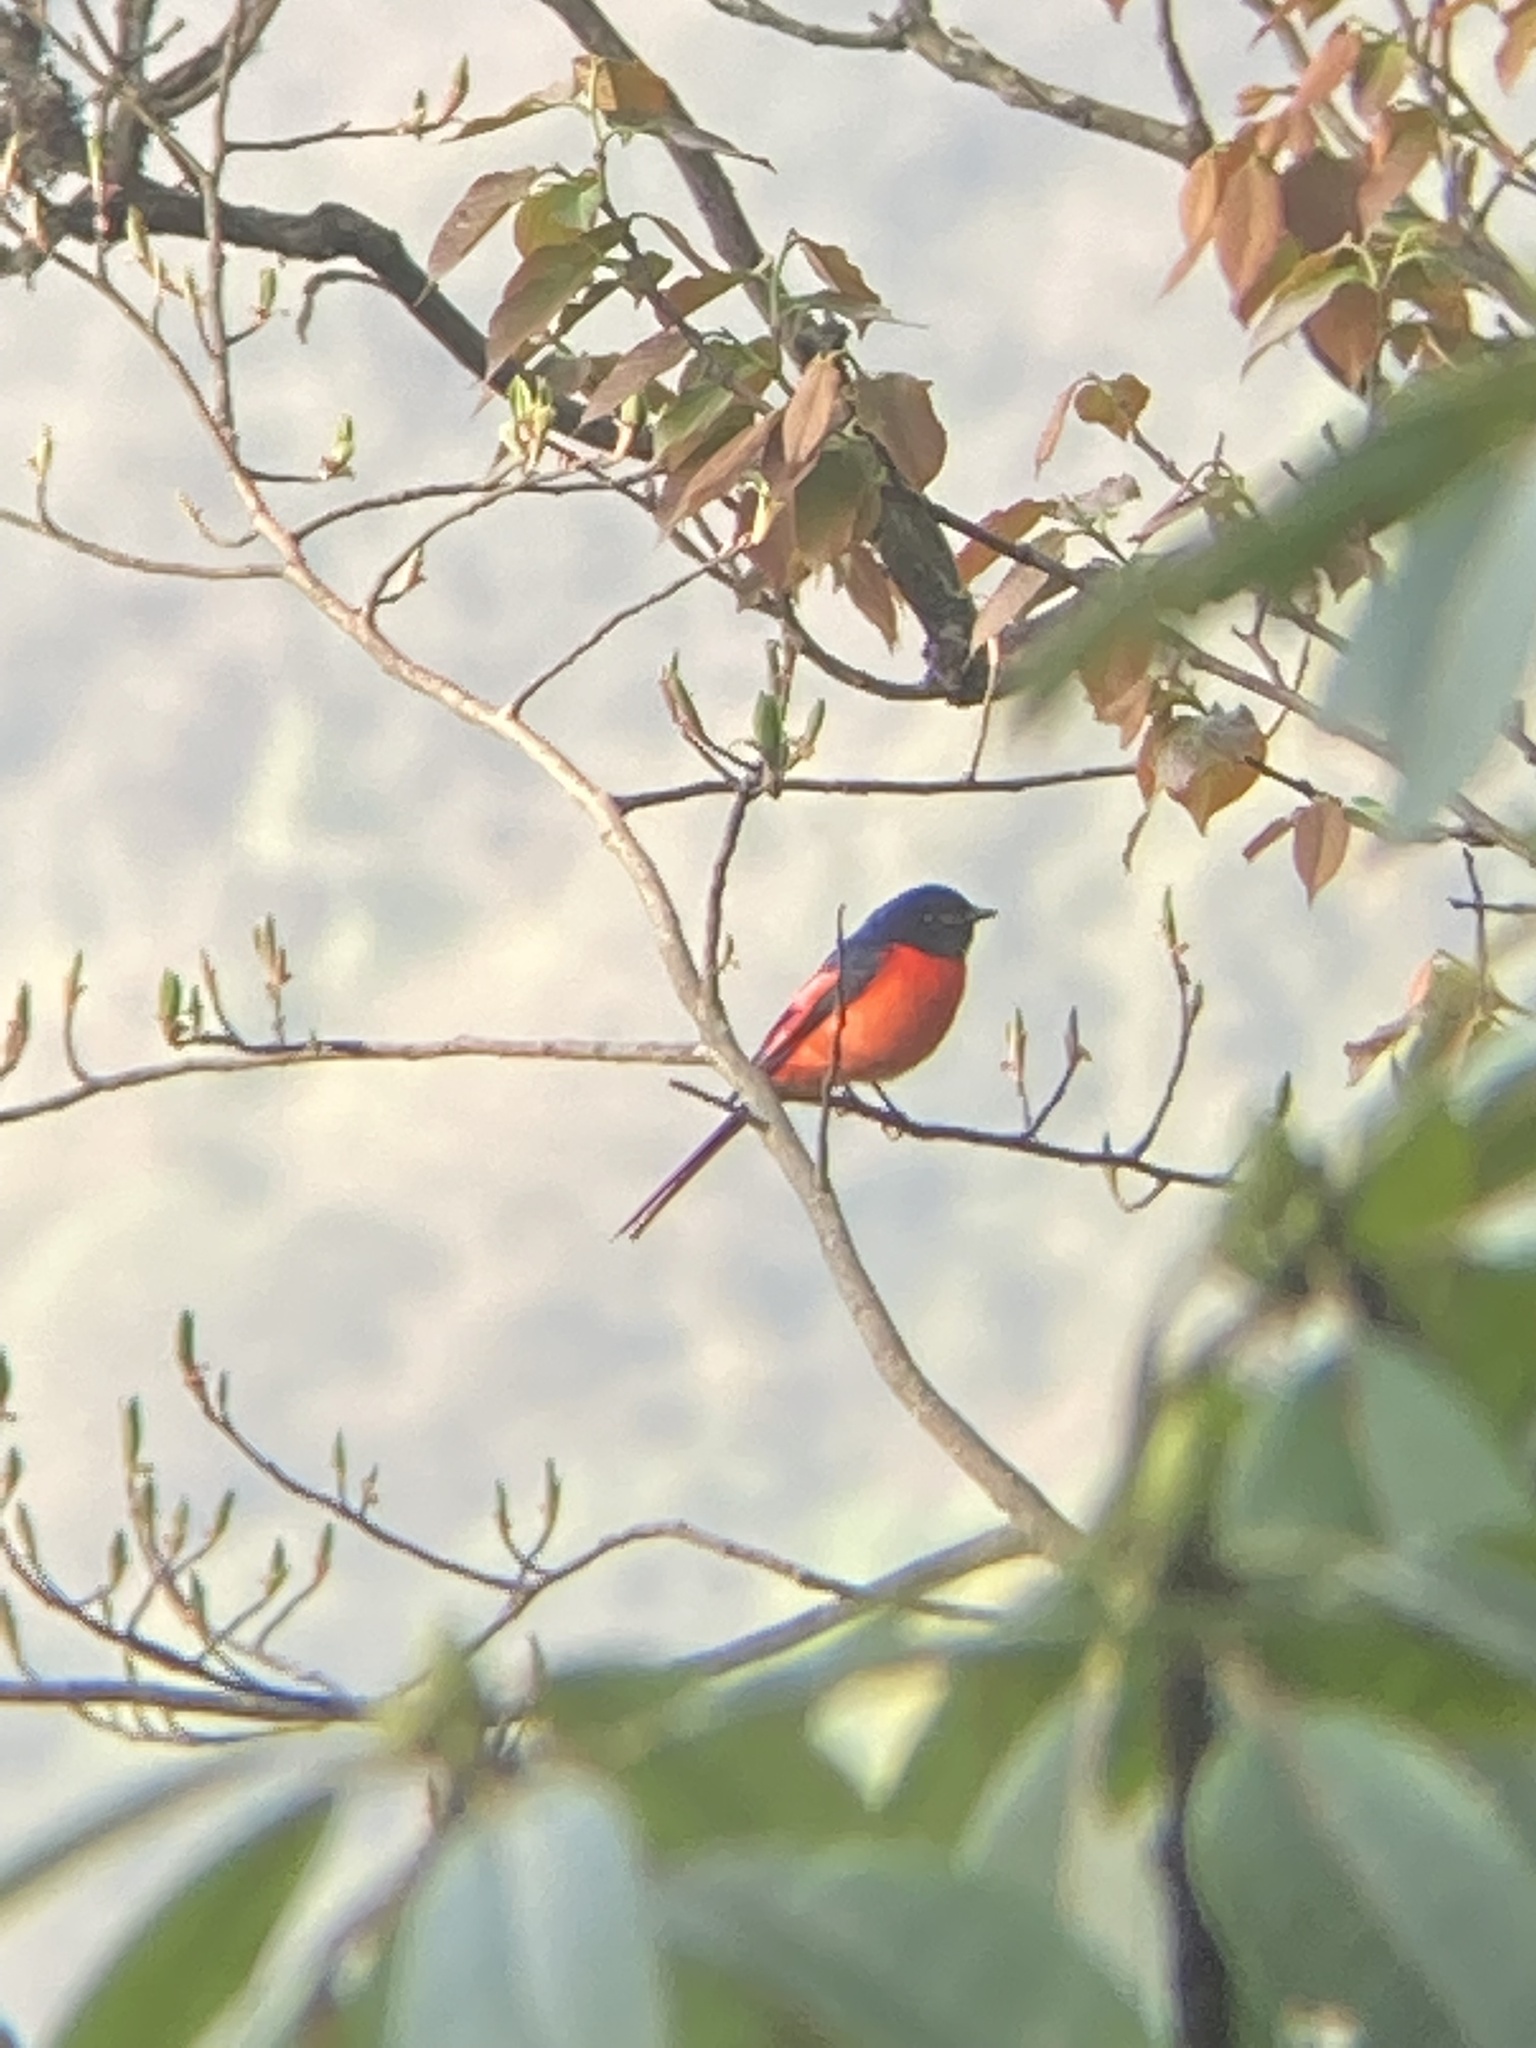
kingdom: Animalia
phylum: Chordata
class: Aves
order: Passeriformes
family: Campephagidae
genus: Pericrocotus
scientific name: Pericrocotus brevirostris
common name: Short-billed minivet
